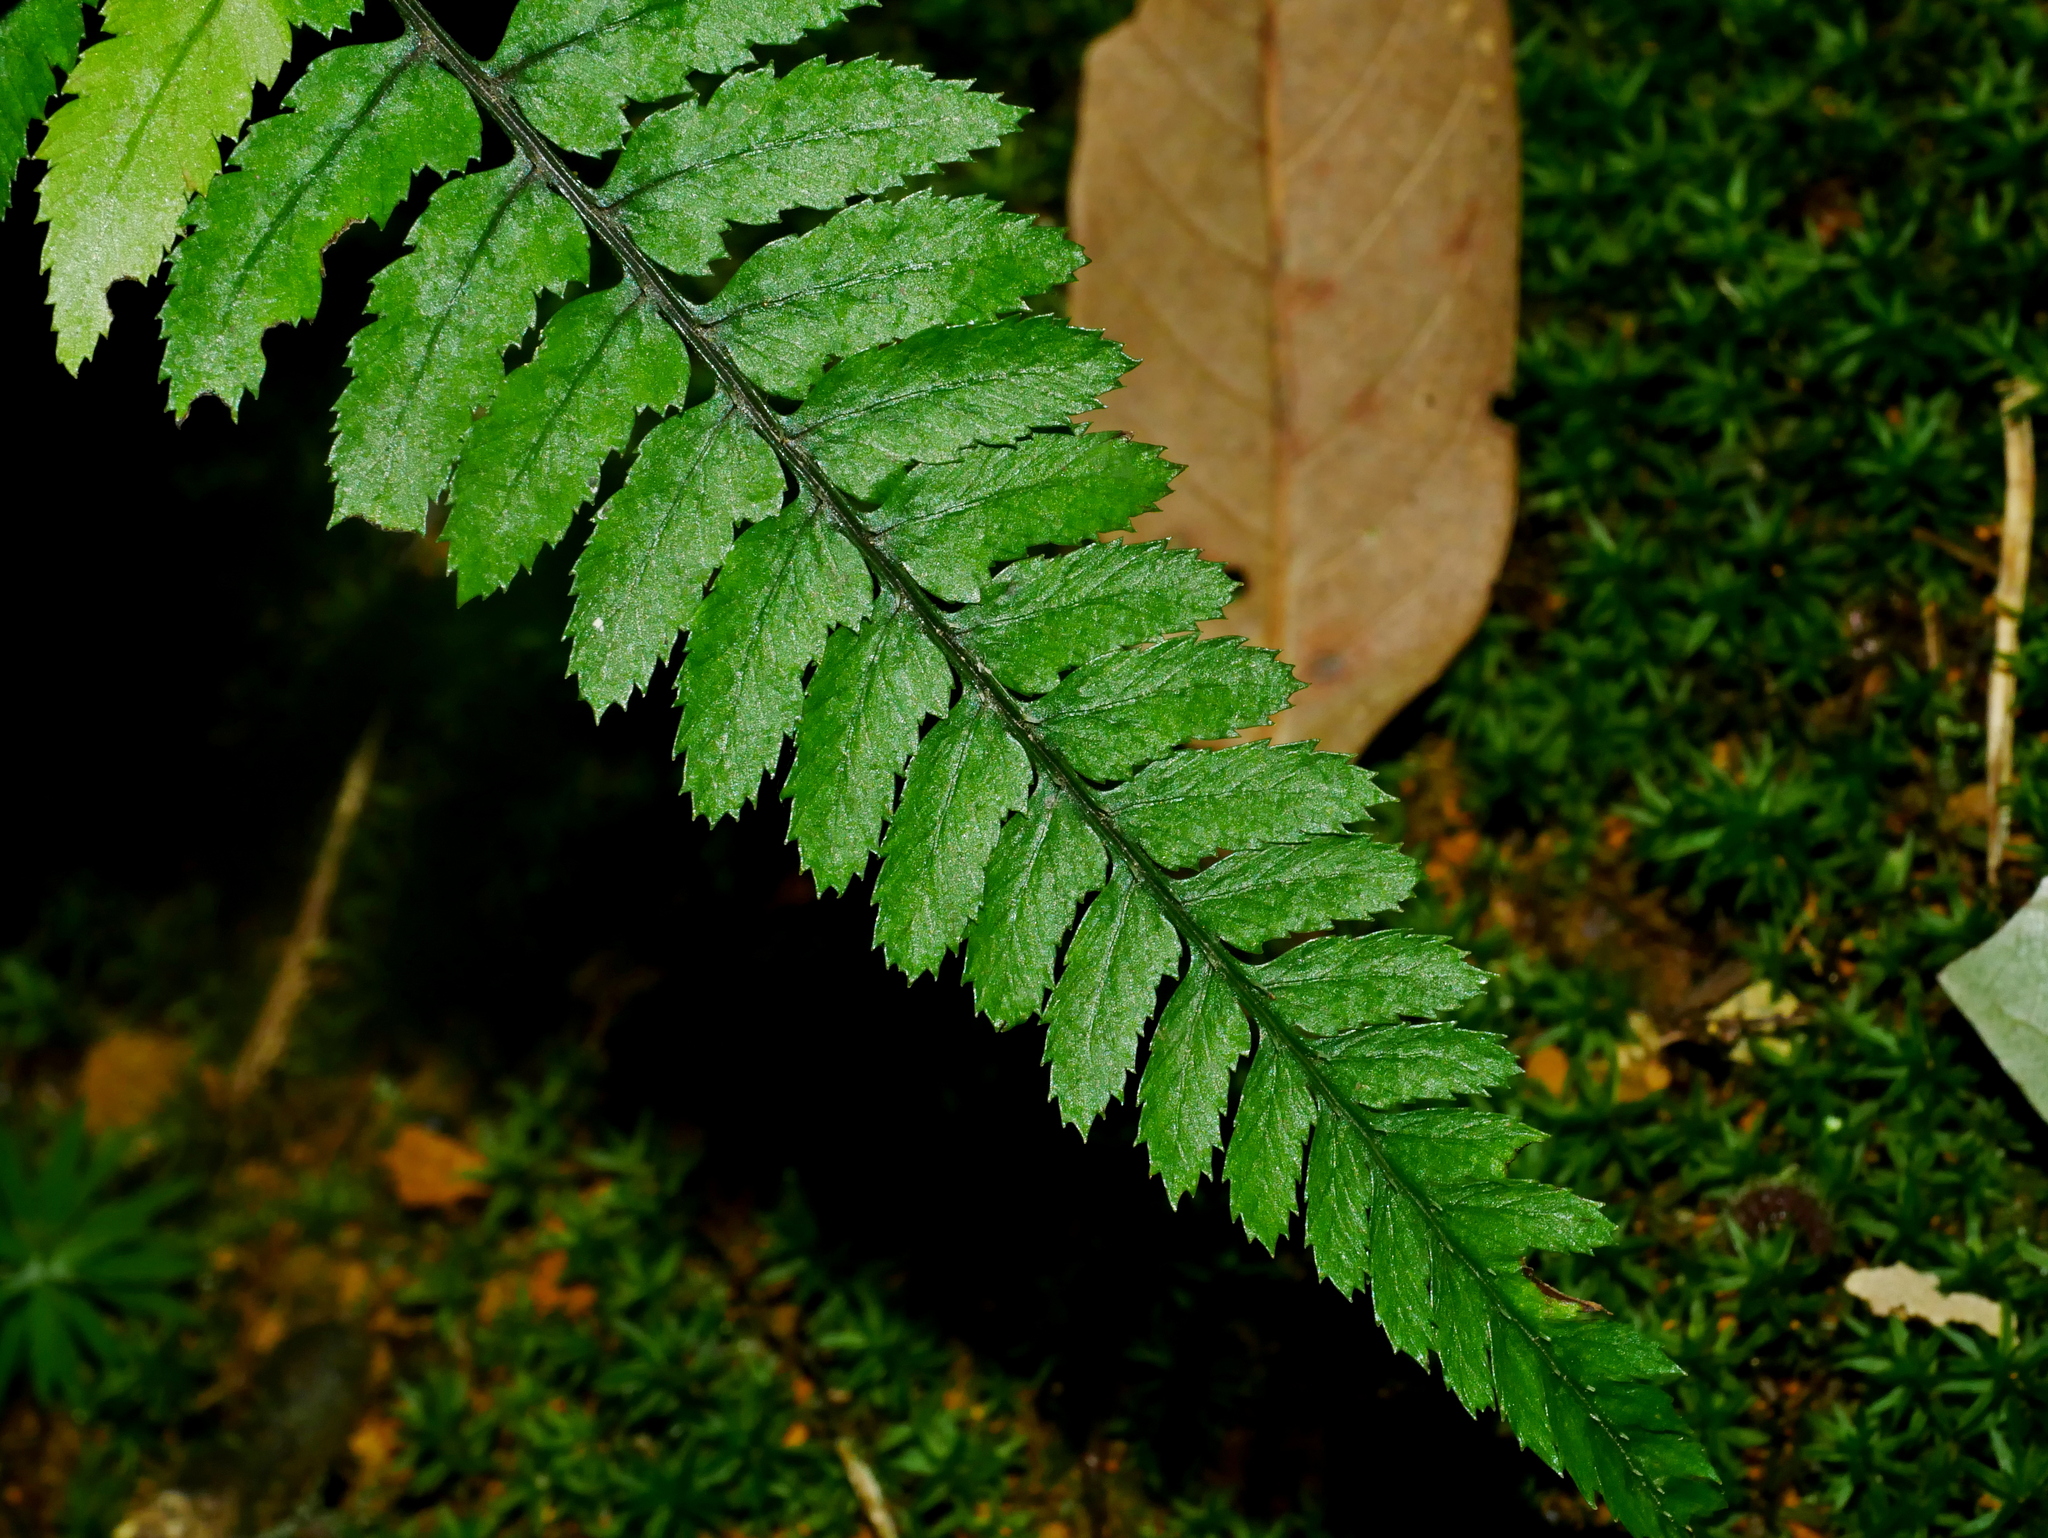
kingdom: Plantae
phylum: Tracheophyta
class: Polypodiopsida
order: Polypodiales
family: Athyriaceae
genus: Athyrium
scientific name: Athyrium leiopodum
